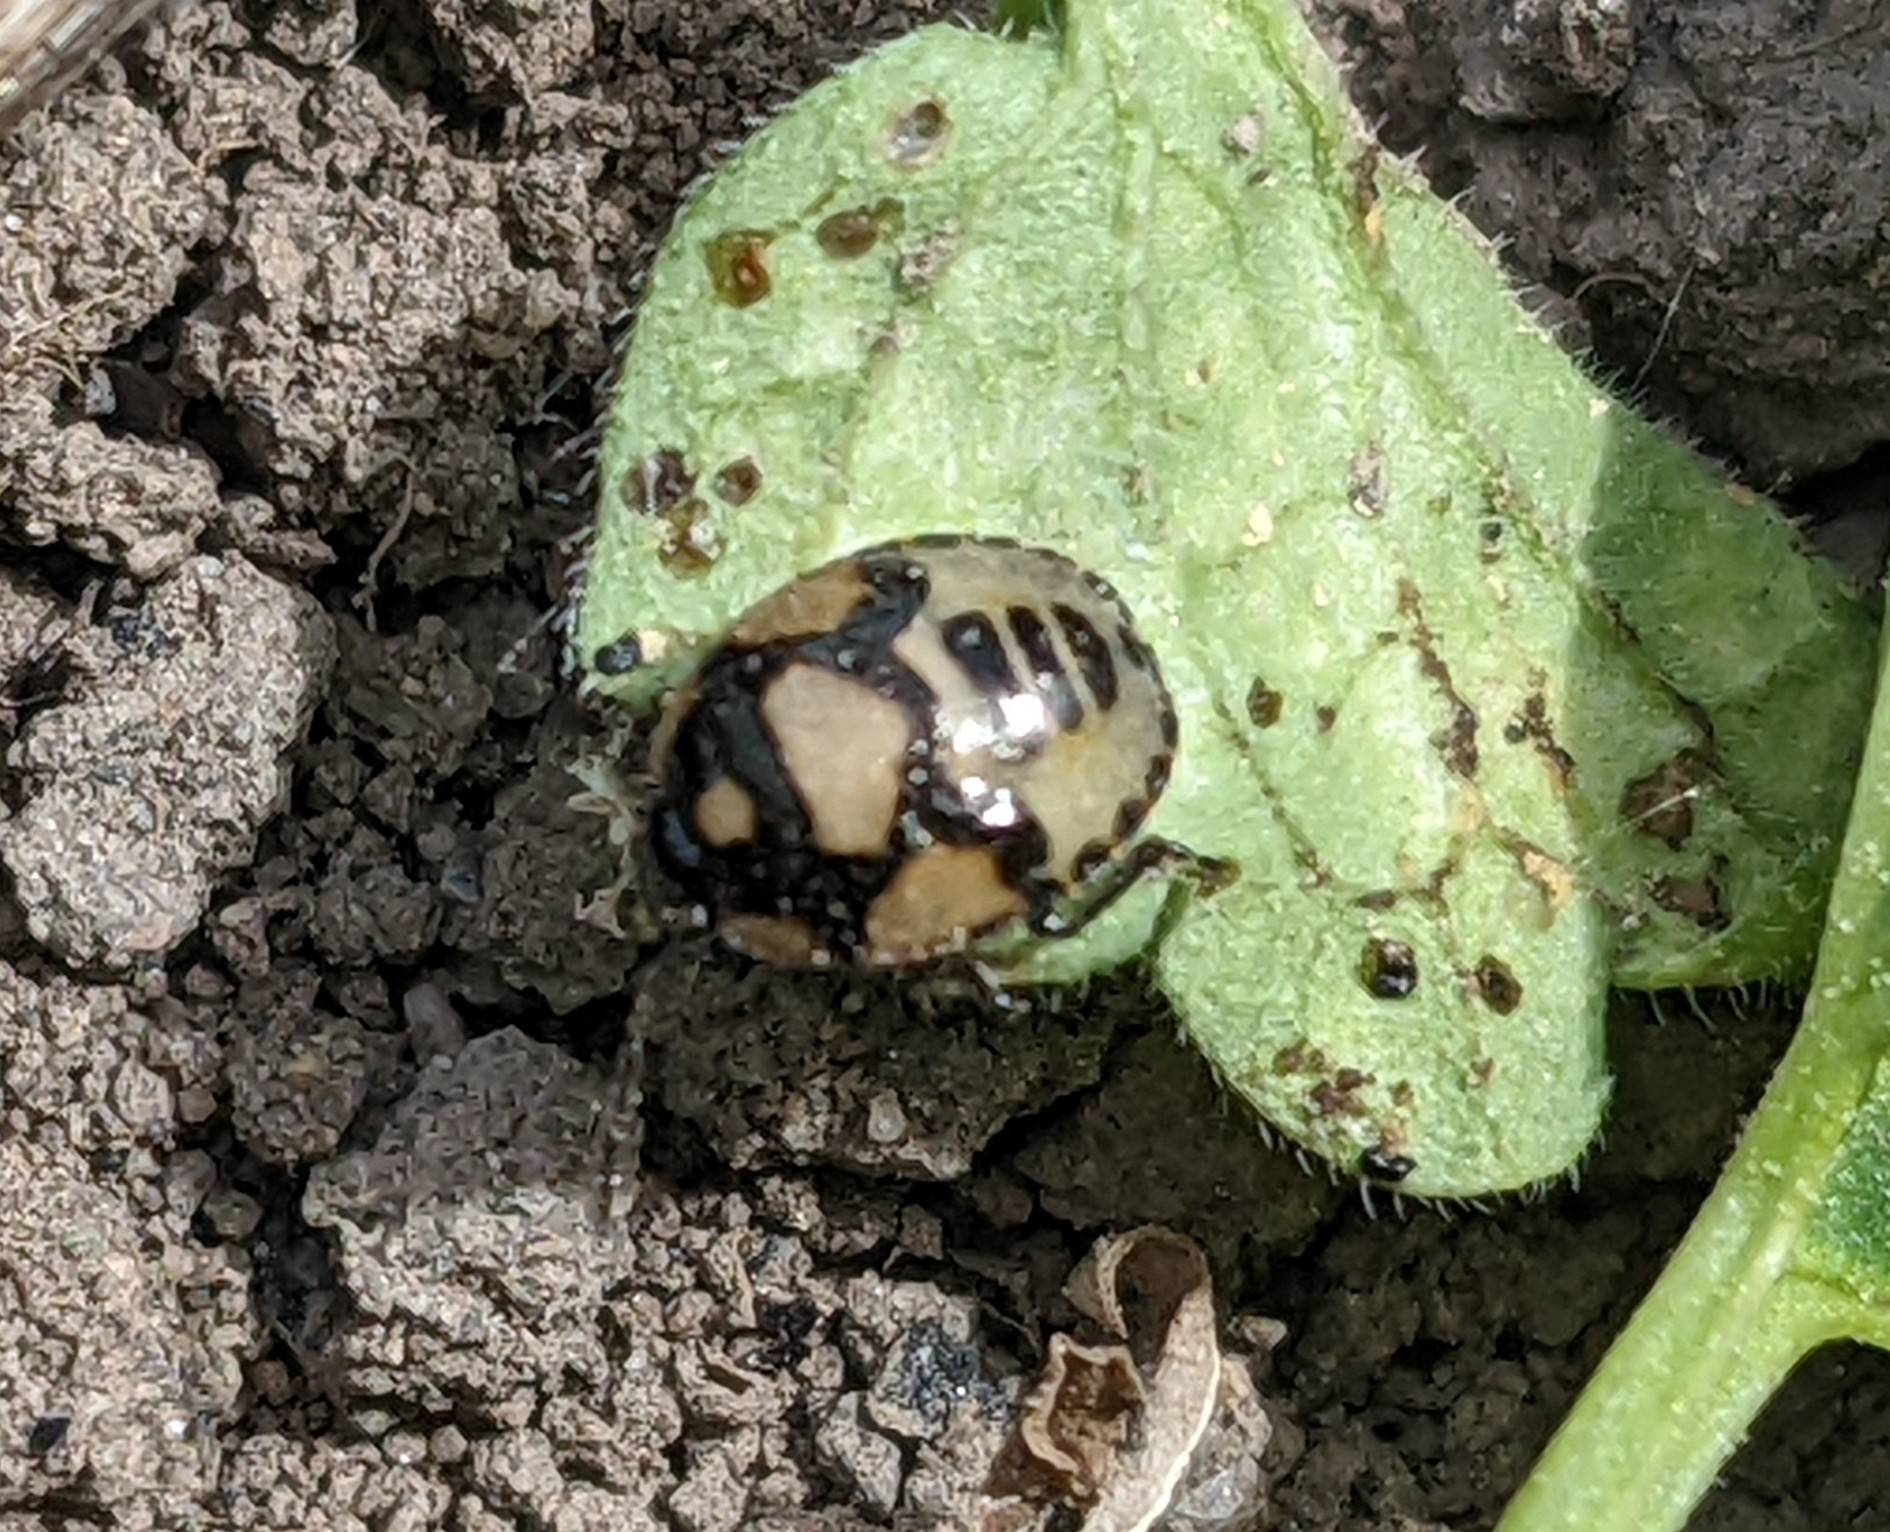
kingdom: Animalia
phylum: Arthropoda
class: Insecta
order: Hemiptera
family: Cydnidae
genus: Tritomegas
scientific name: Tritomegas bicolor
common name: Pied shieldbug
